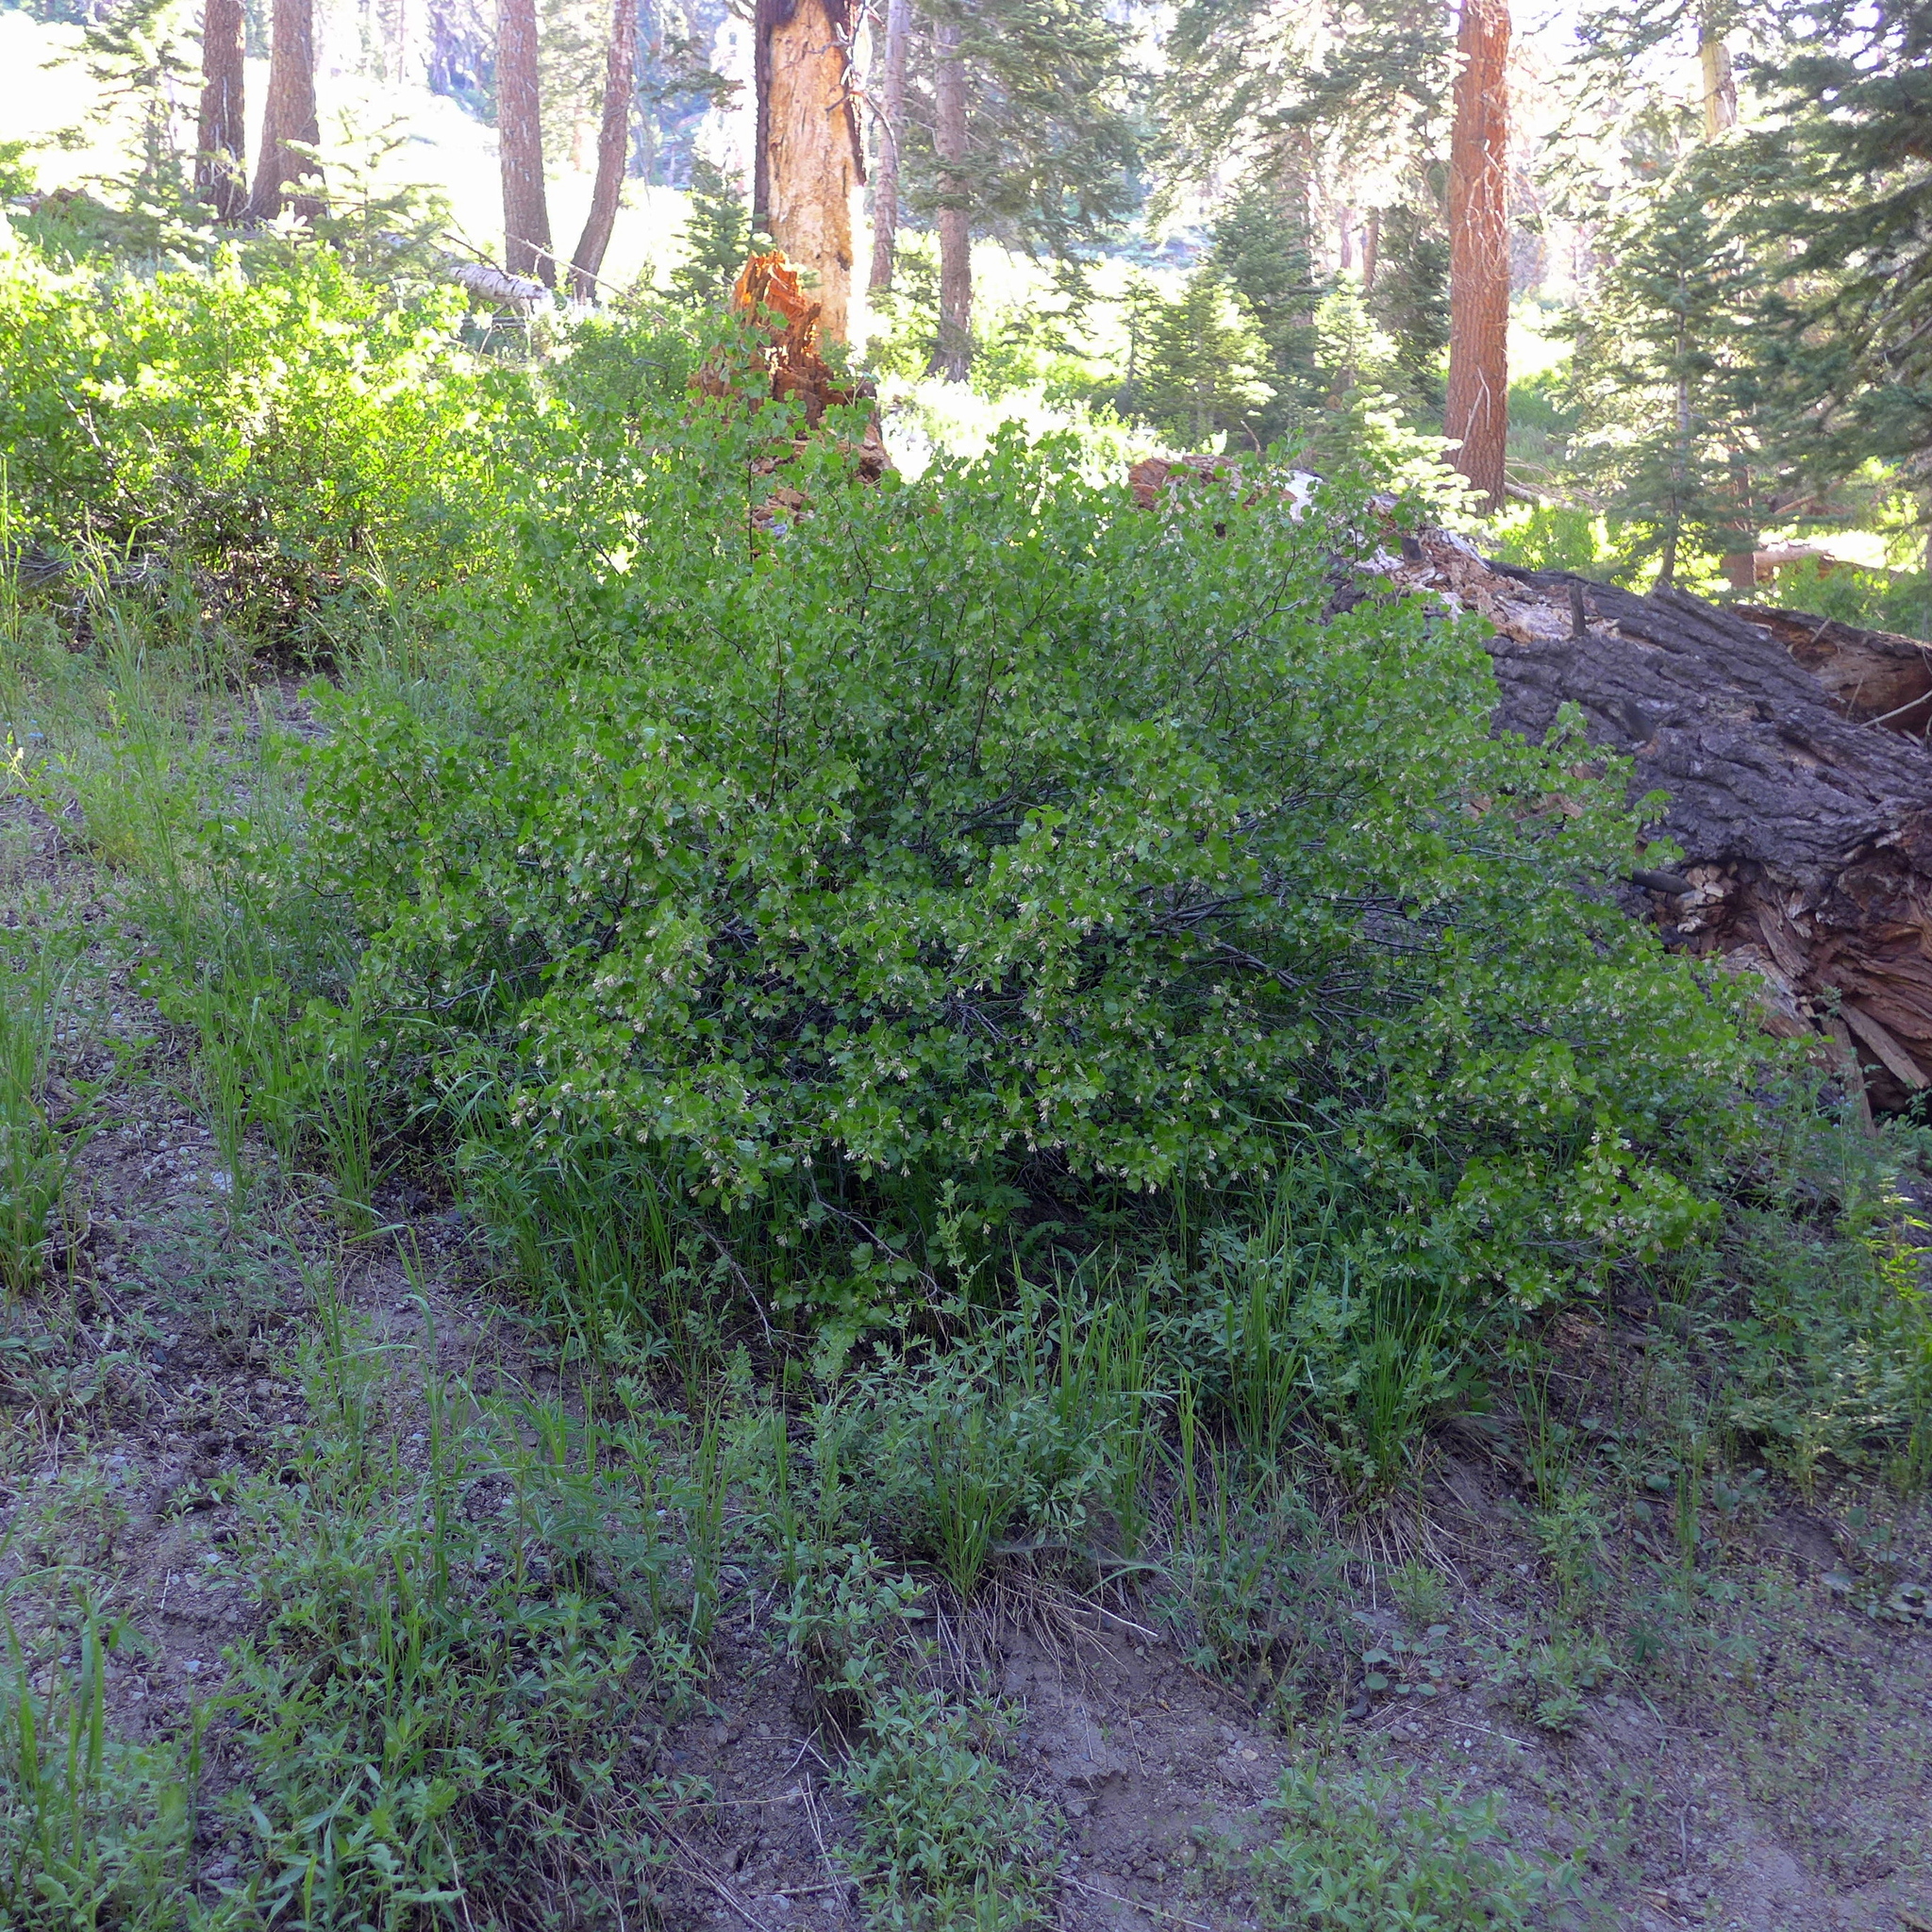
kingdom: Plantae
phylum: Tracheophyta
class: Magnoliopsida
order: Saxifragales
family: Grossulariaceae
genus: Ribes
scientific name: Ribes cereum
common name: Wax currant
